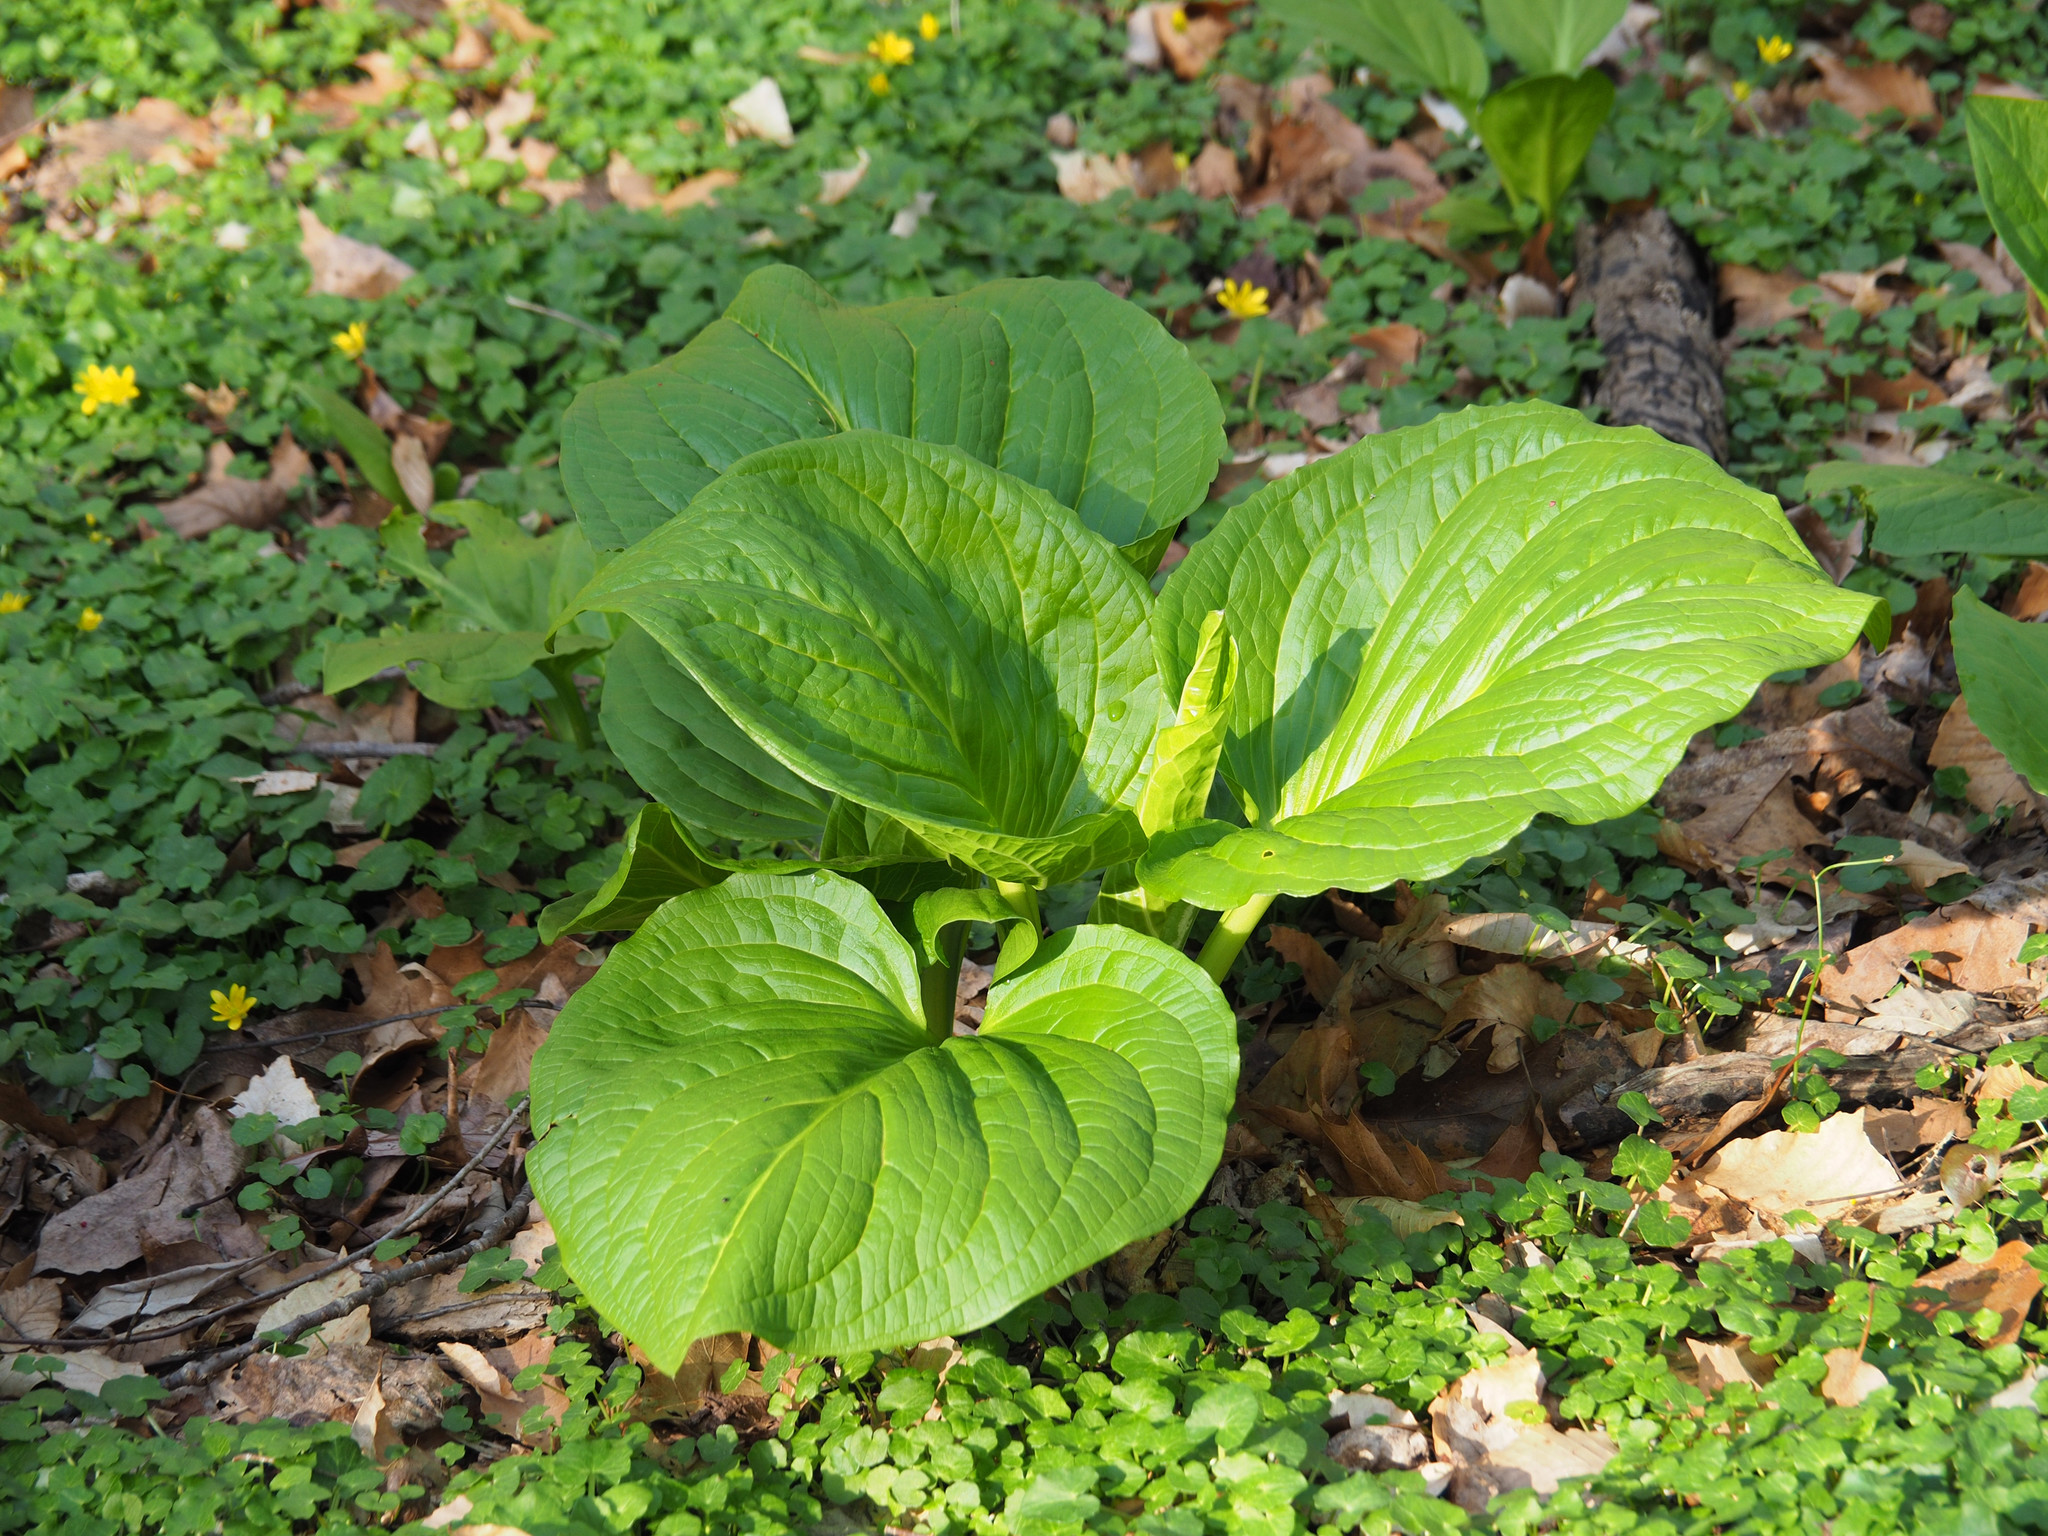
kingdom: Plantae
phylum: Tracheophyta
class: Liliopsida
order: Alismatales
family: Araceae
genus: Symplocarpus
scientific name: Symplocarpus foetidus
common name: Eastern skunk cabbage
